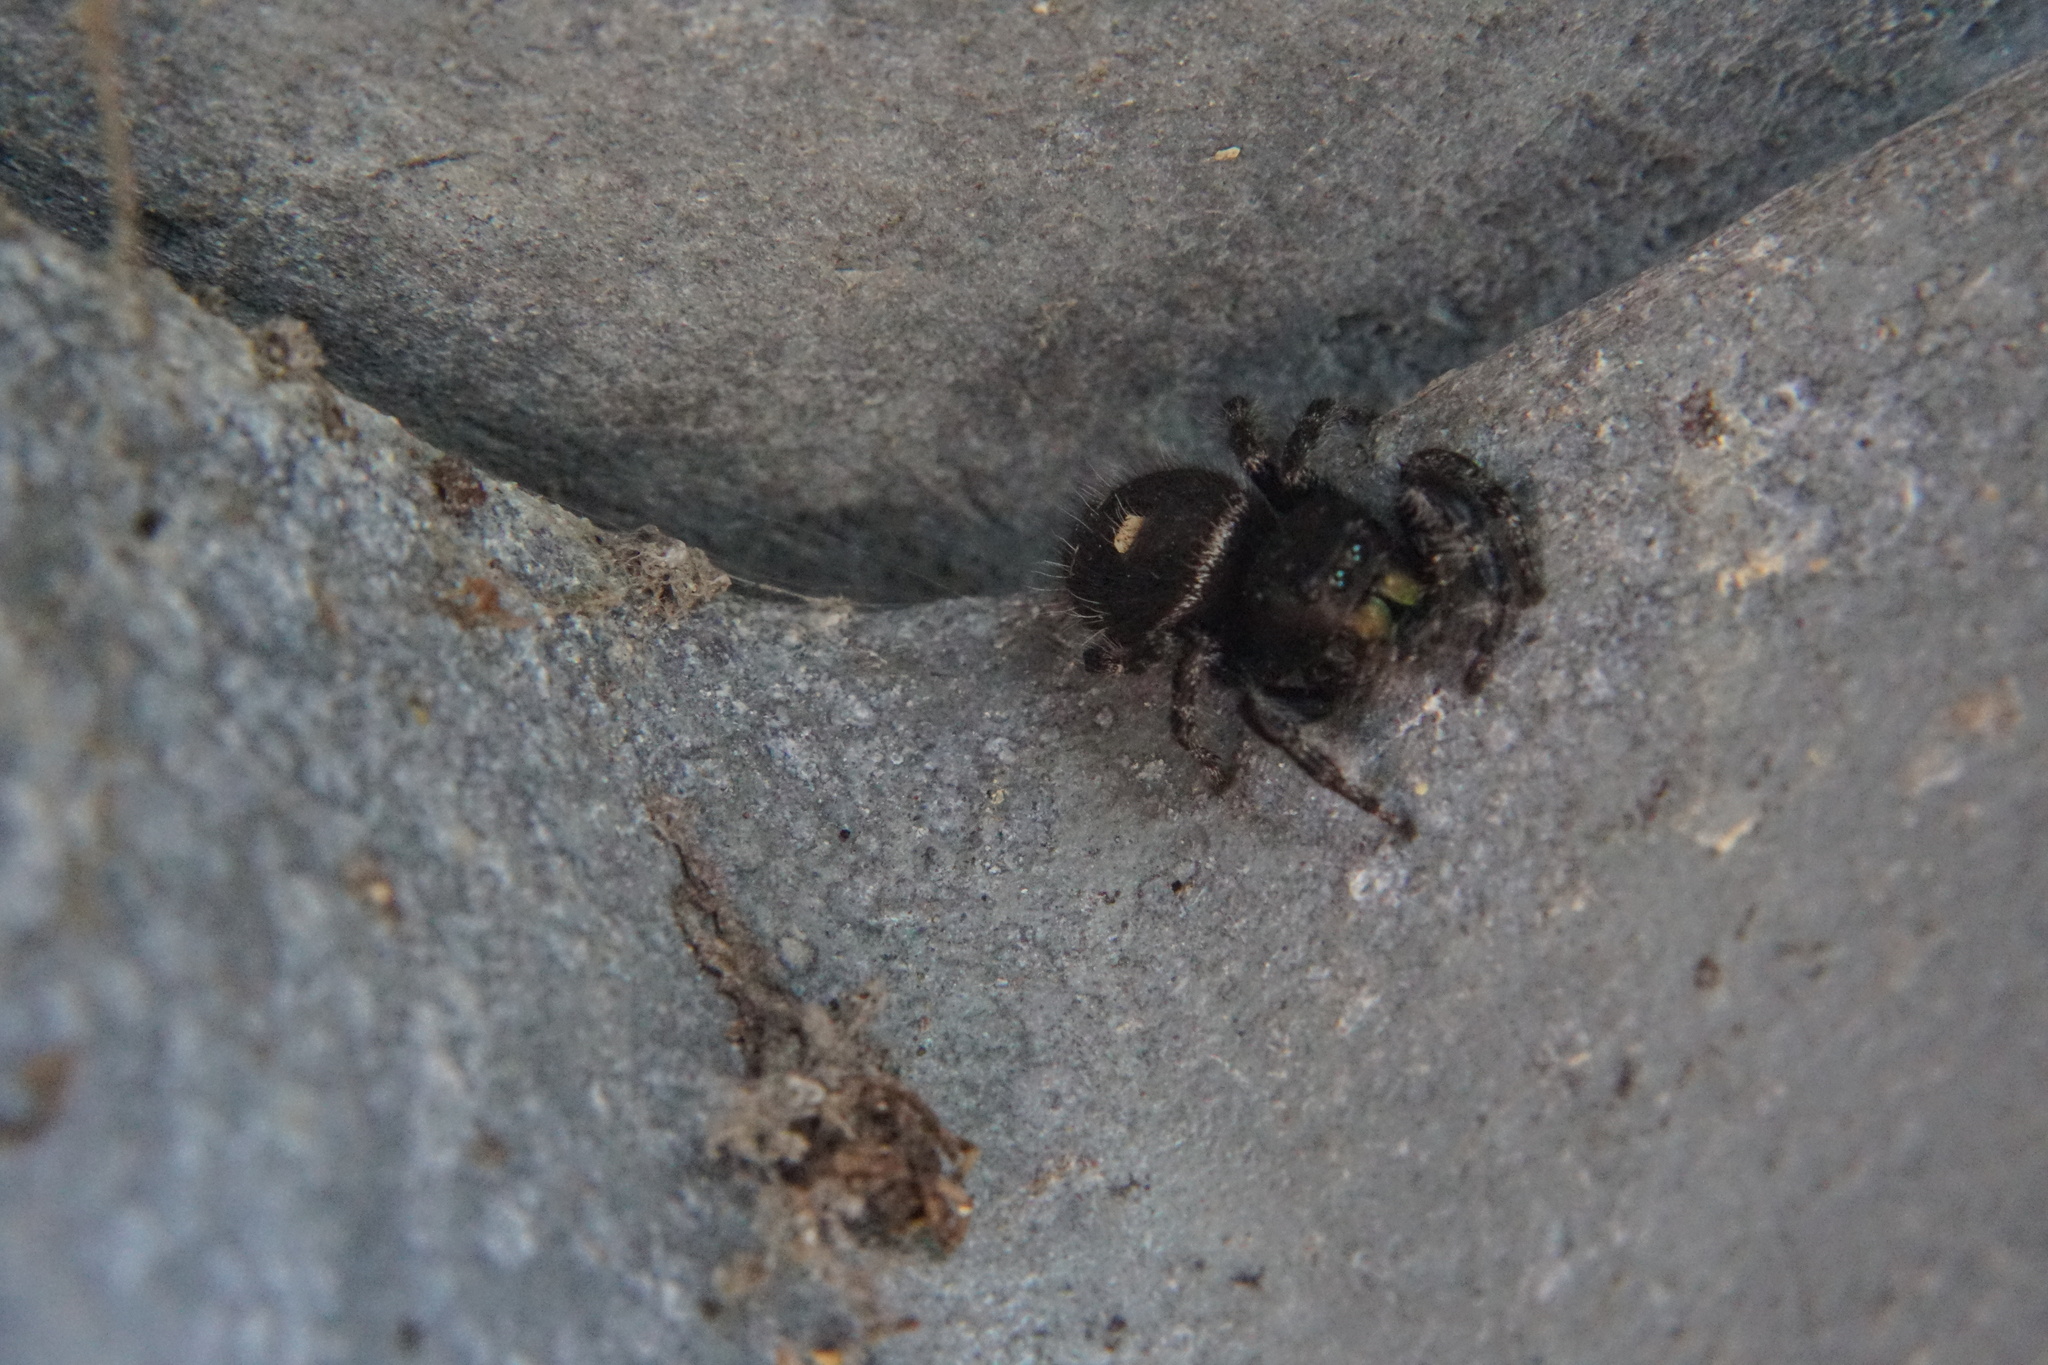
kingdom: Animalia
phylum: Arthropoda
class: Arachnida
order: Araneae
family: Salticidae
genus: Phidippus
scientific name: Phidippus audax
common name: Bold jumper
